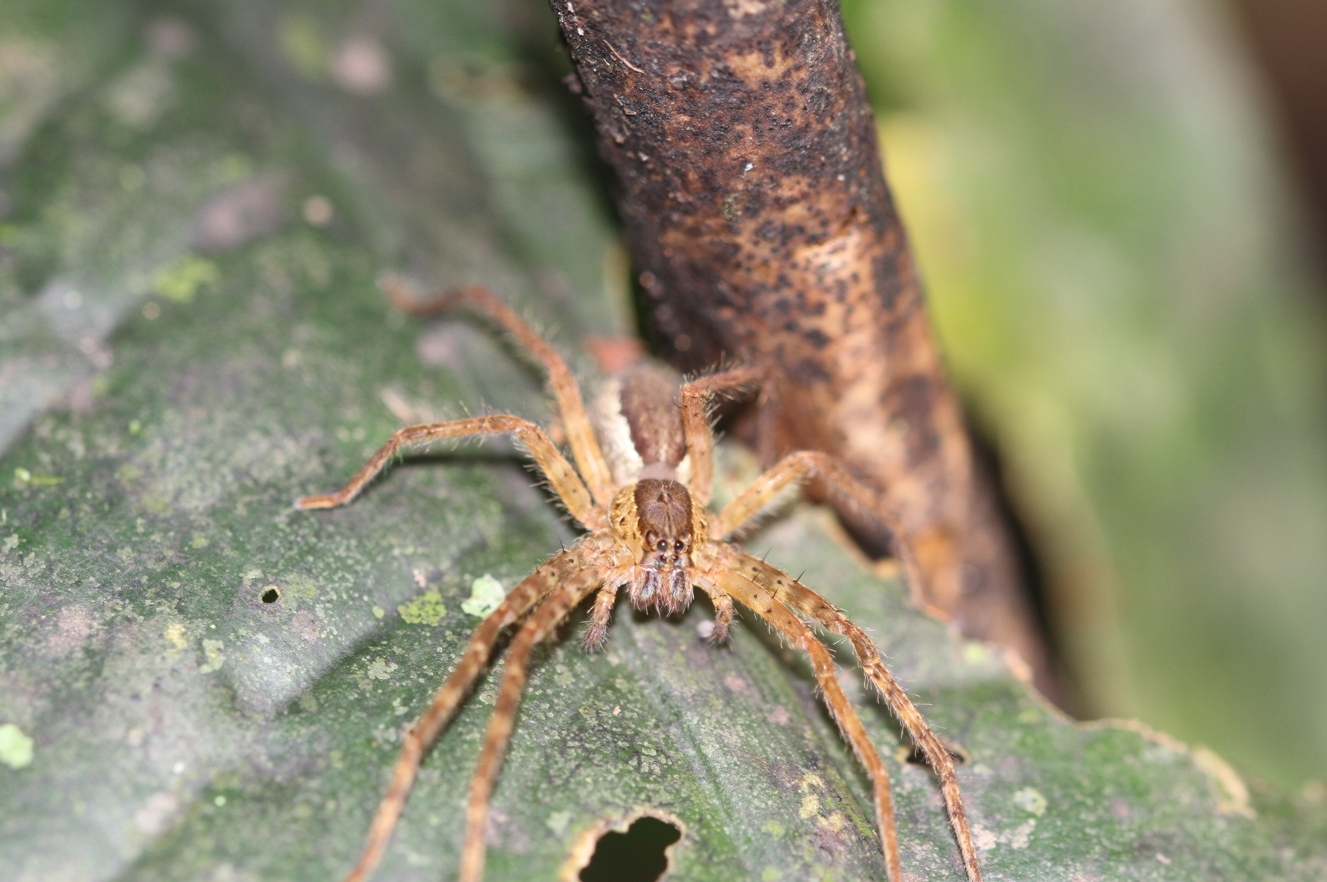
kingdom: Animalia
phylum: Arthropoda
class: Arachnida
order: Araneae
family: Trechaleidae
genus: Cupiennius
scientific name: Cupiennius bimaculatus
